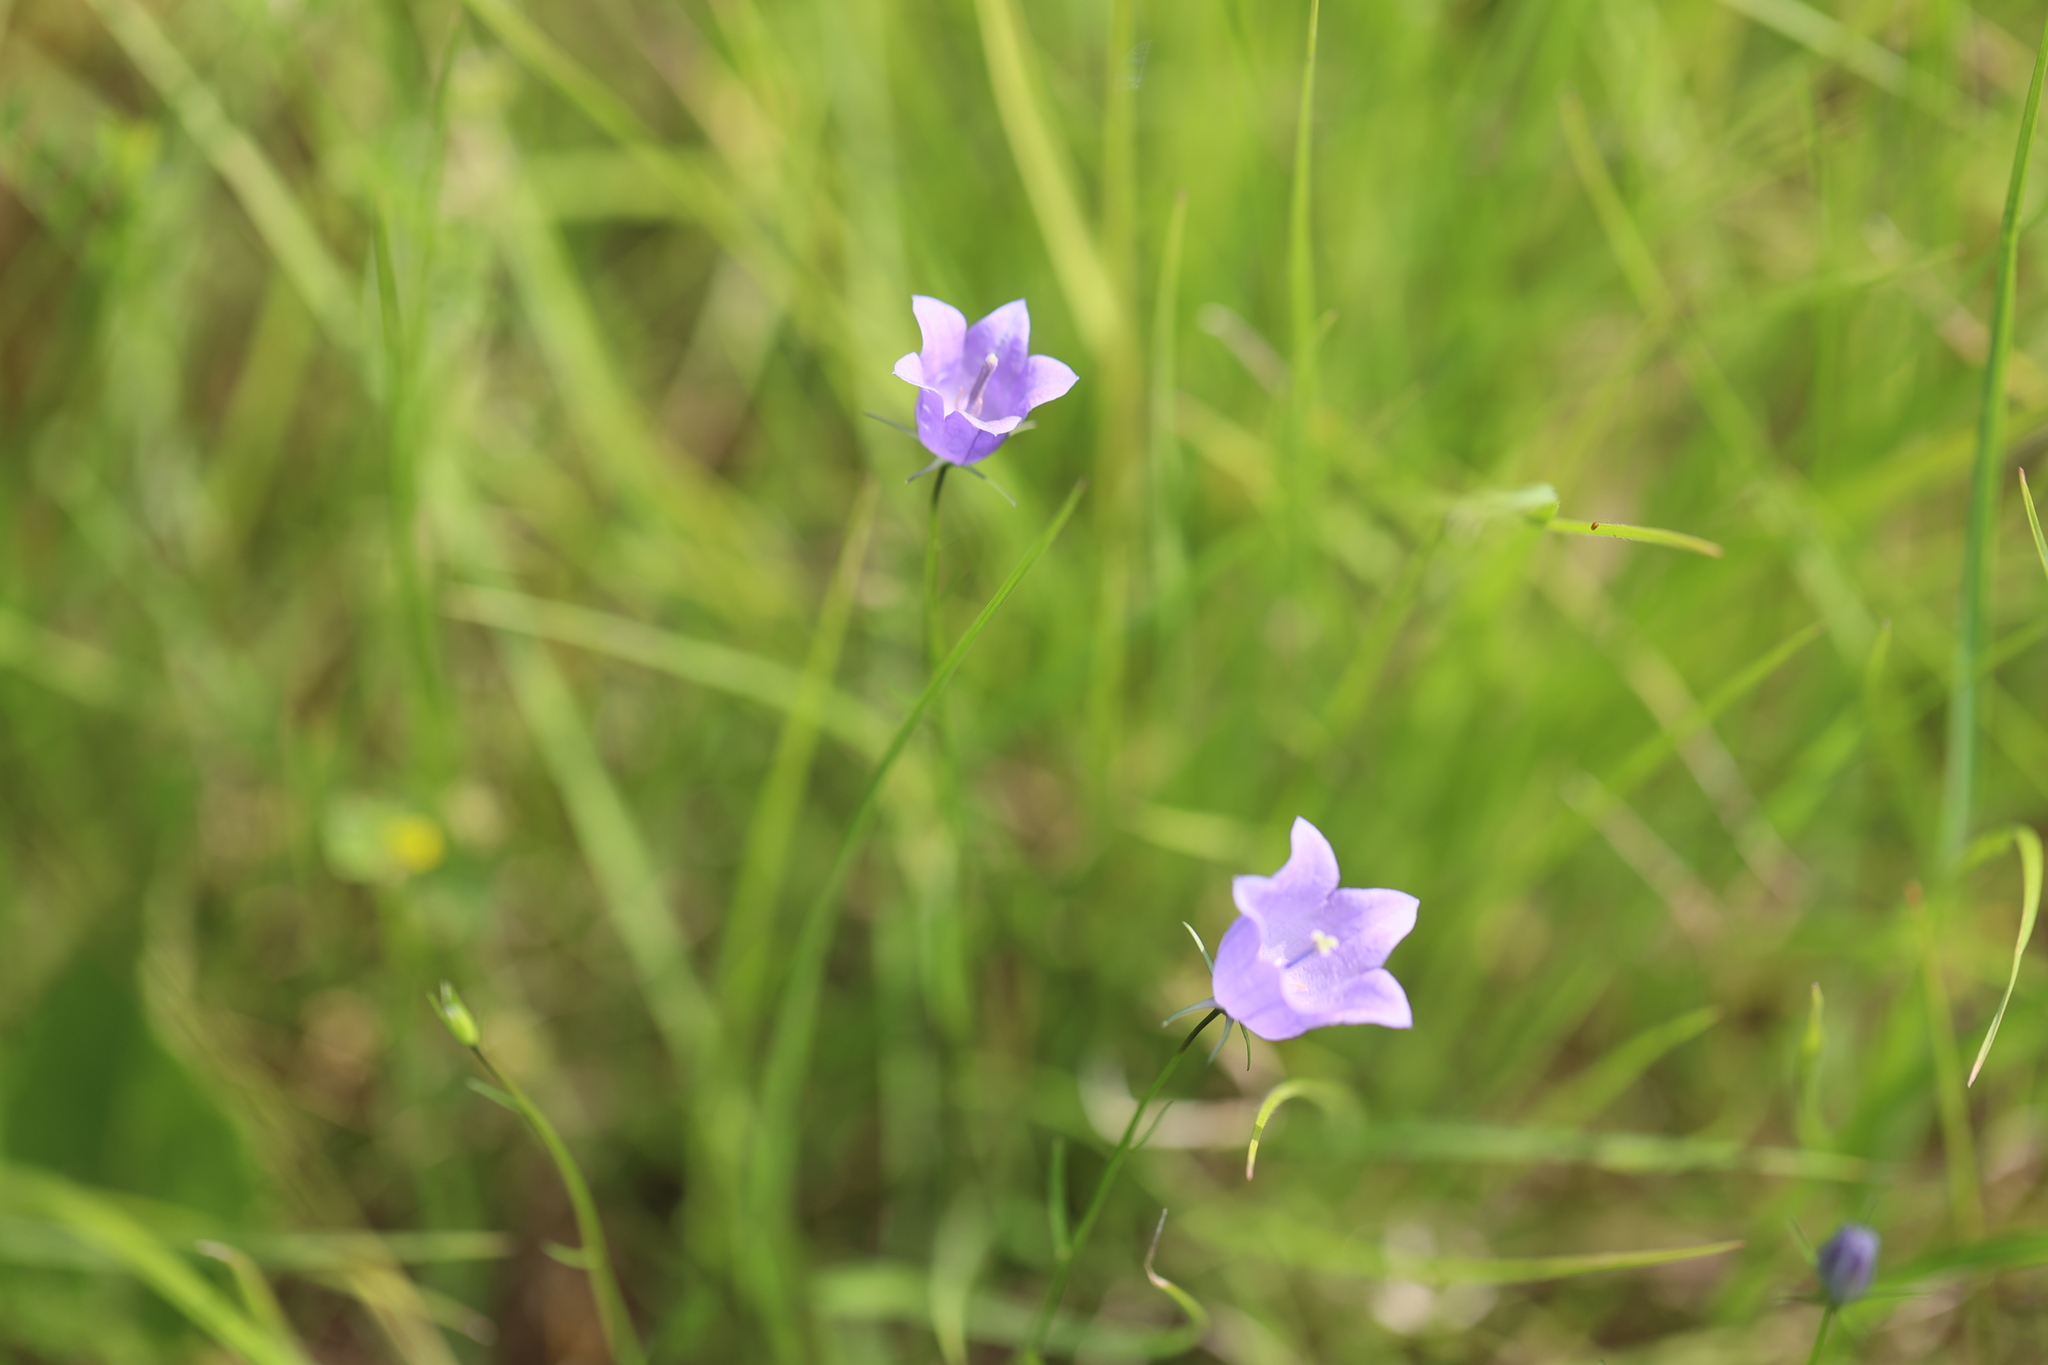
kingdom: Plantae
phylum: Tracheophyta
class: Magnoliopsida
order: Asterales
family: Campanulaceae
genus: Campanula
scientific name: Campanula rotundifolia
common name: Harebell
